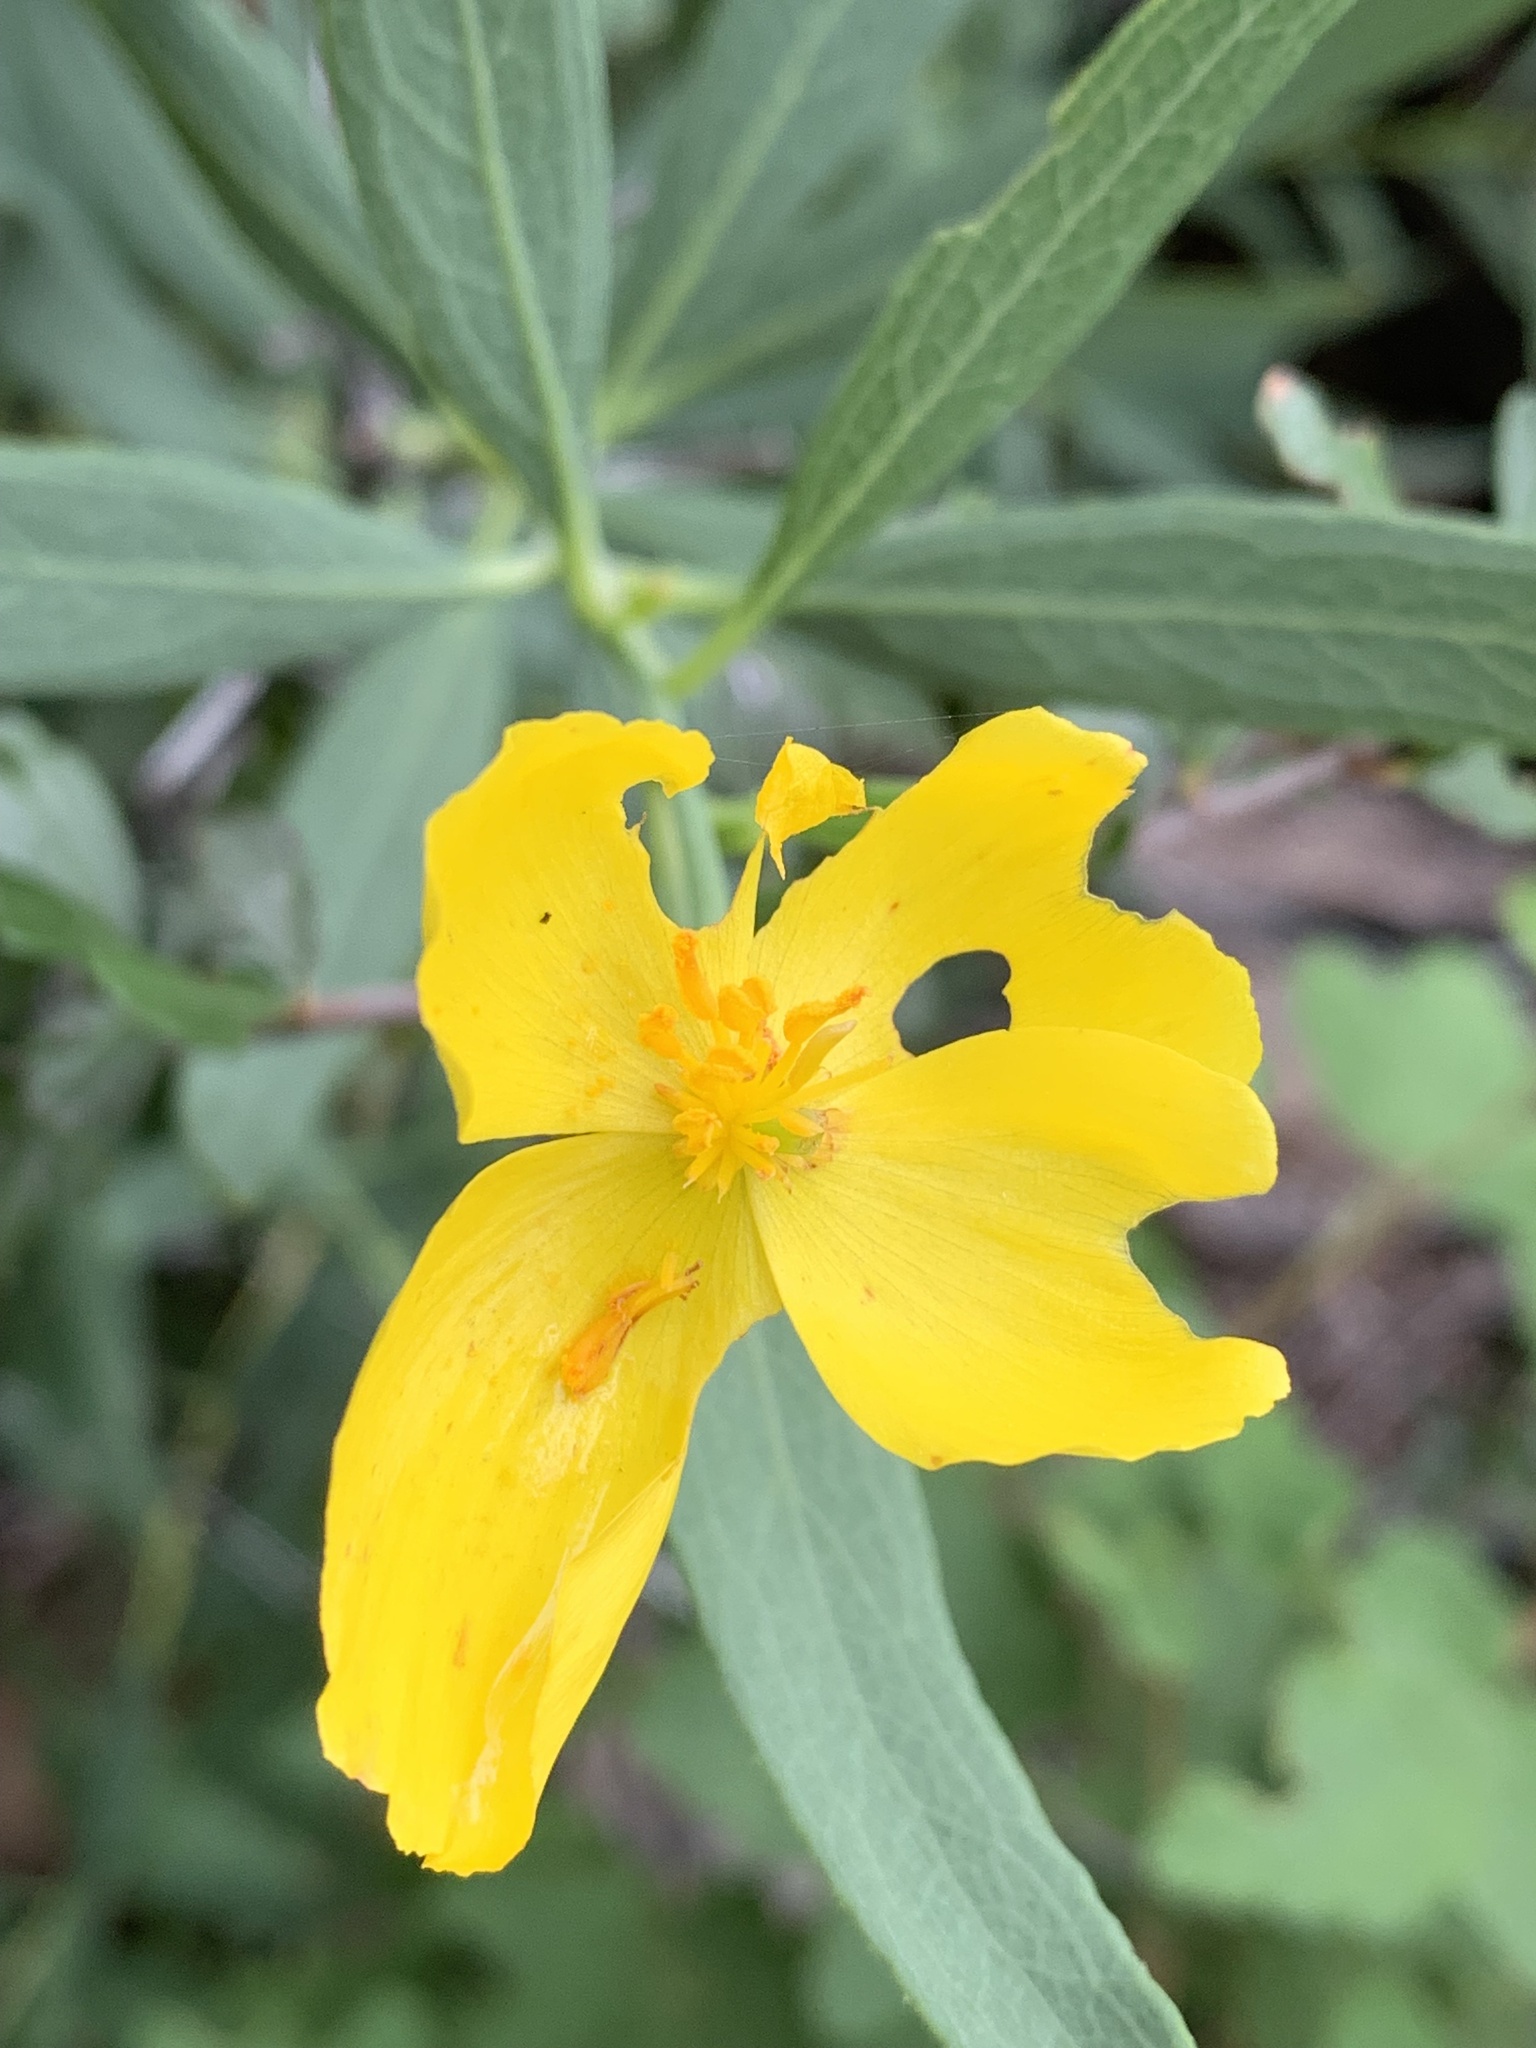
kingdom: Plantae
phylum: Tracheophyta
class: Magnoliopsida
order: Ranunculales
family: Papaveraceae
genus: Dendromecon
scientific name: Dendromecon rigida
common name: Tree poppy
